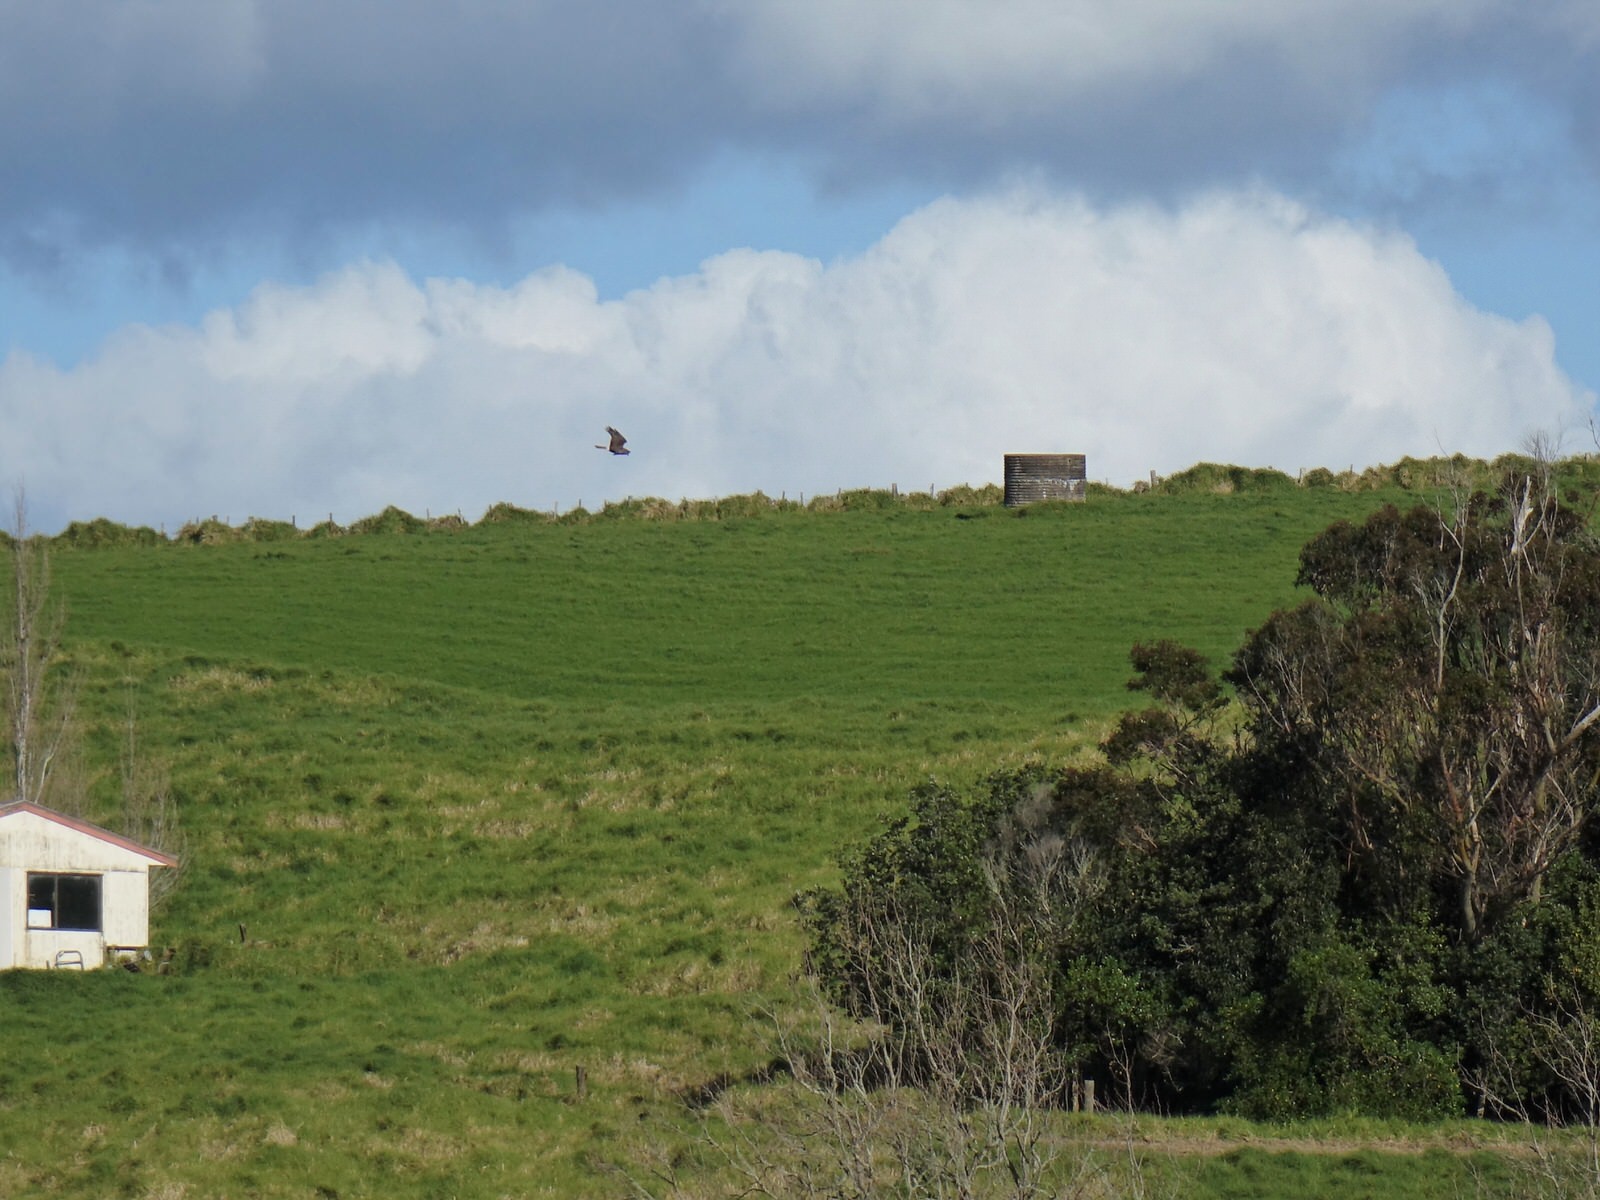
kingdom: Animalia
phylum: Chordata
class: Aves
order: Accipitriformes
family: Accipitridae
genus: Circus
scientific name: Circus approximans
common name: Swamp harrier
